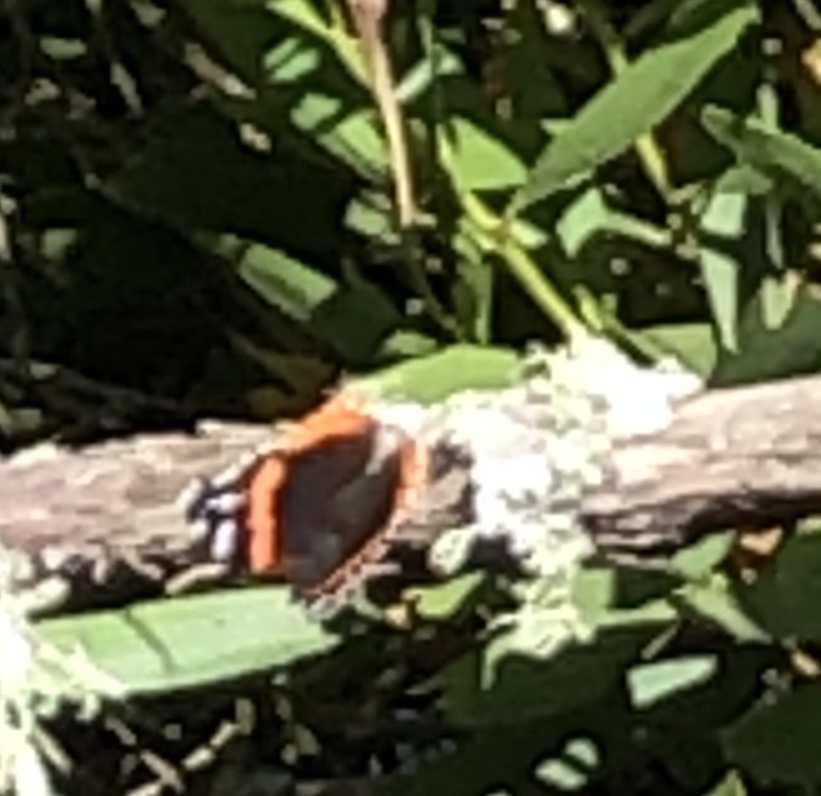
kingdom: Animalia
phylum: Arthropoda
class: Insecta
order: Lepidoptera
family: Nymphalidae
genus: Vanessa
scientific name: Vanessa atalanta
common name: Red admiral
